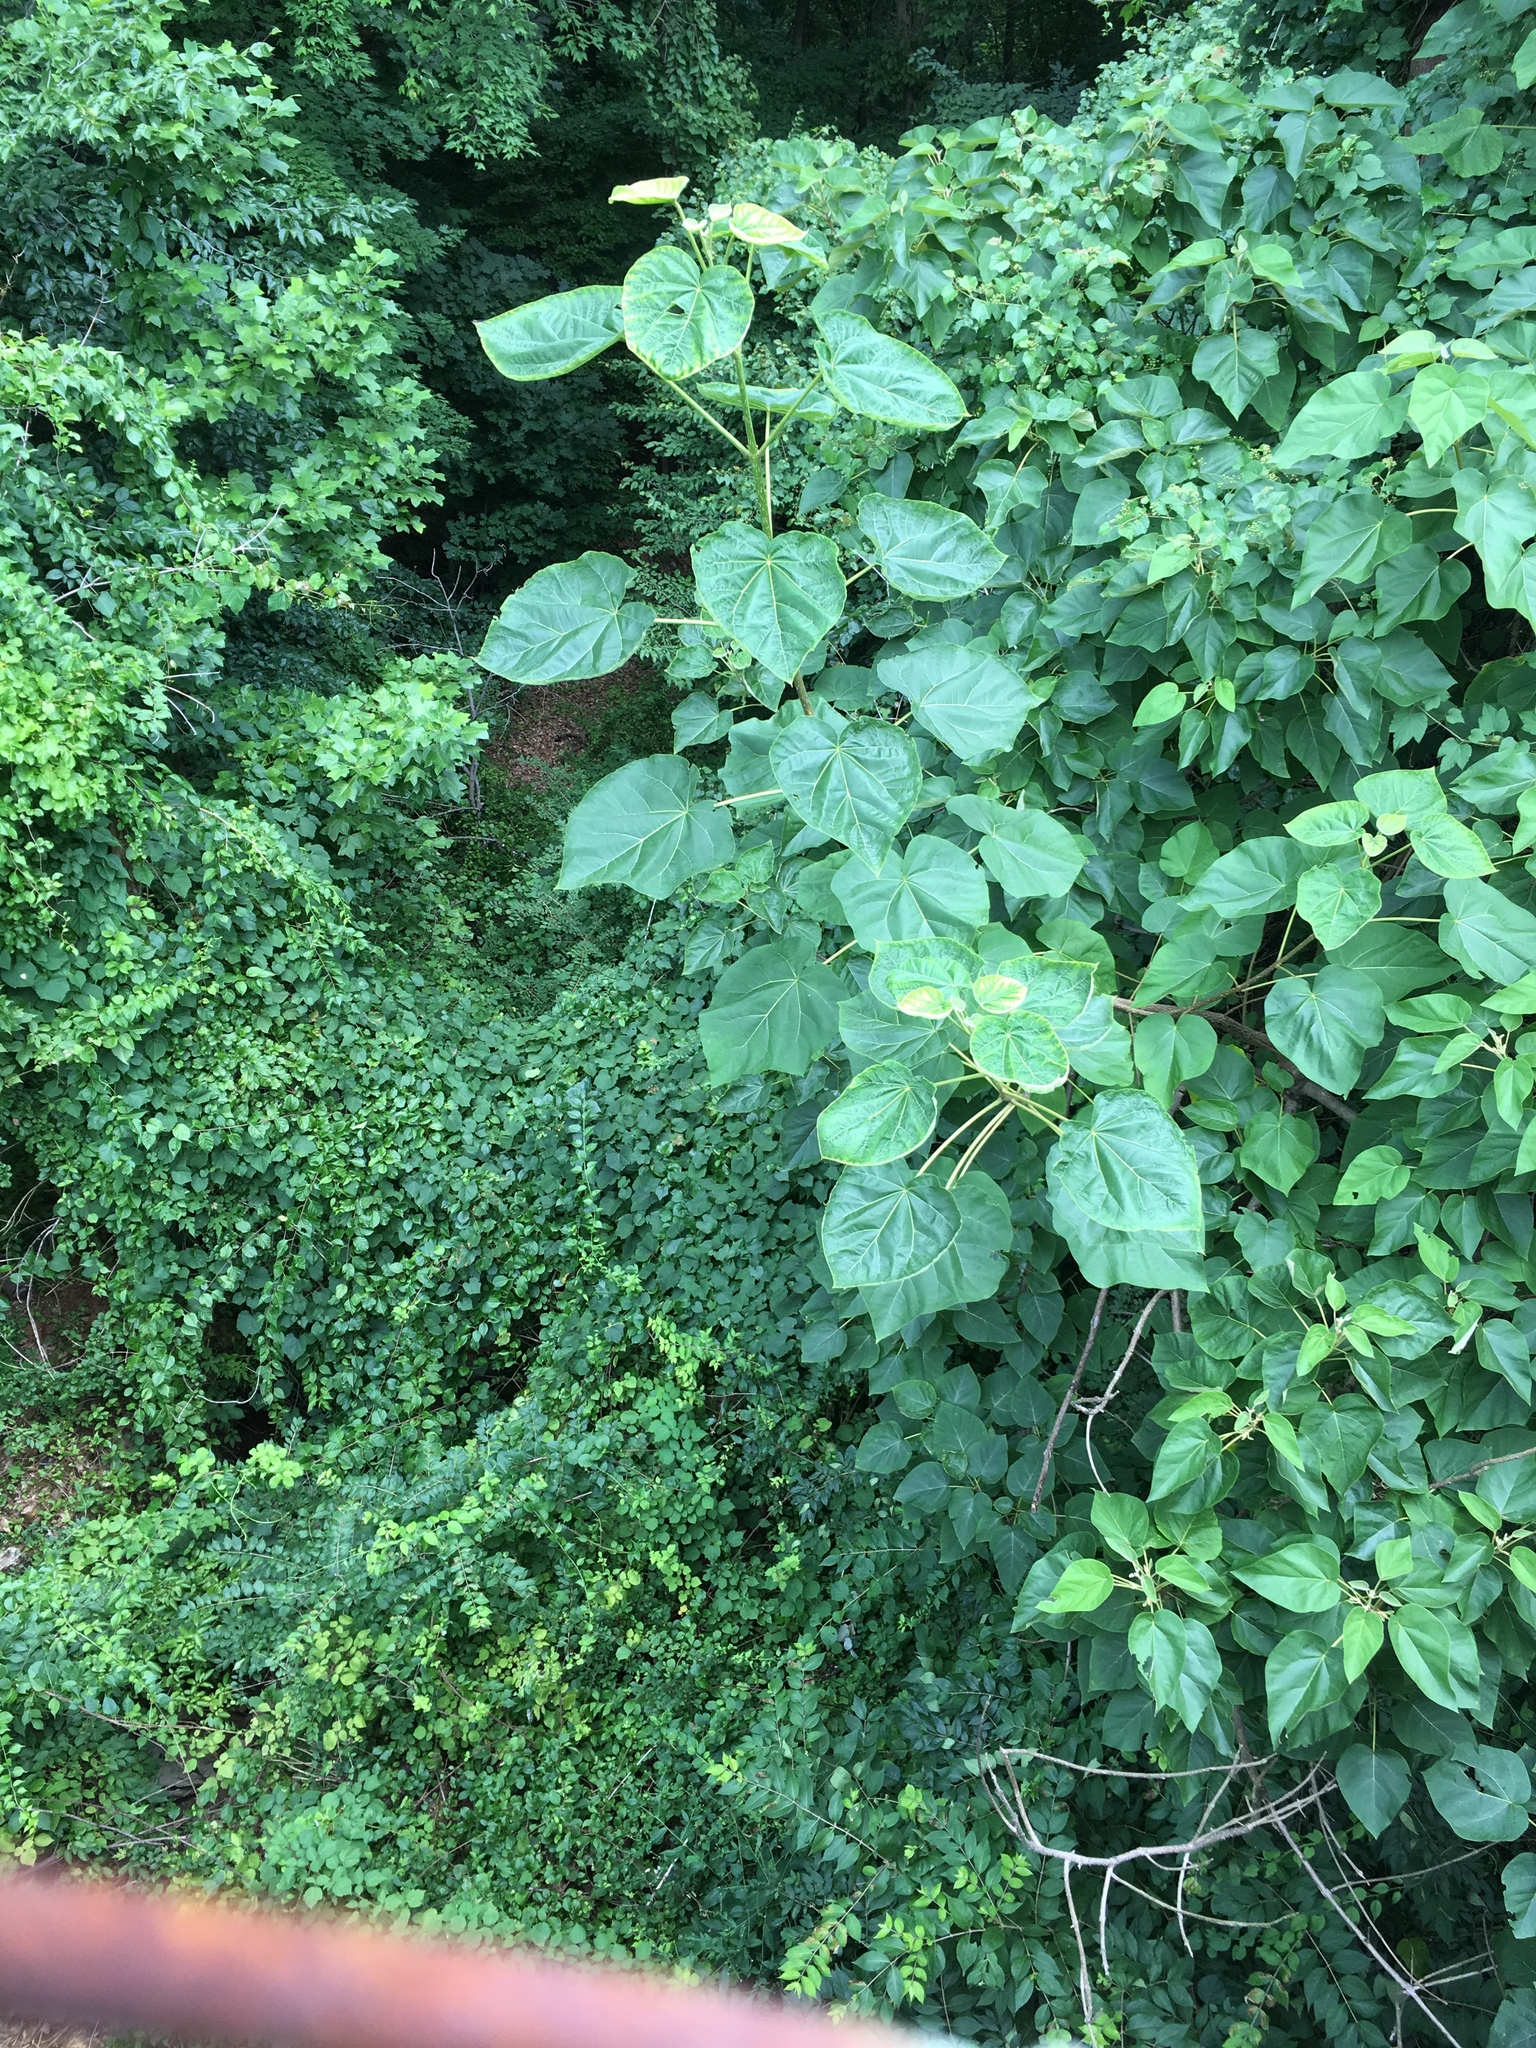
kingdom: Plantae
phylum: Tracheophyta
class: Magnoliopsida
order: Lamiales
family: Paulowniaceae
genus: Paulownia
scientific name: Paulownia tomentosa
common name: Foxglove-tree
